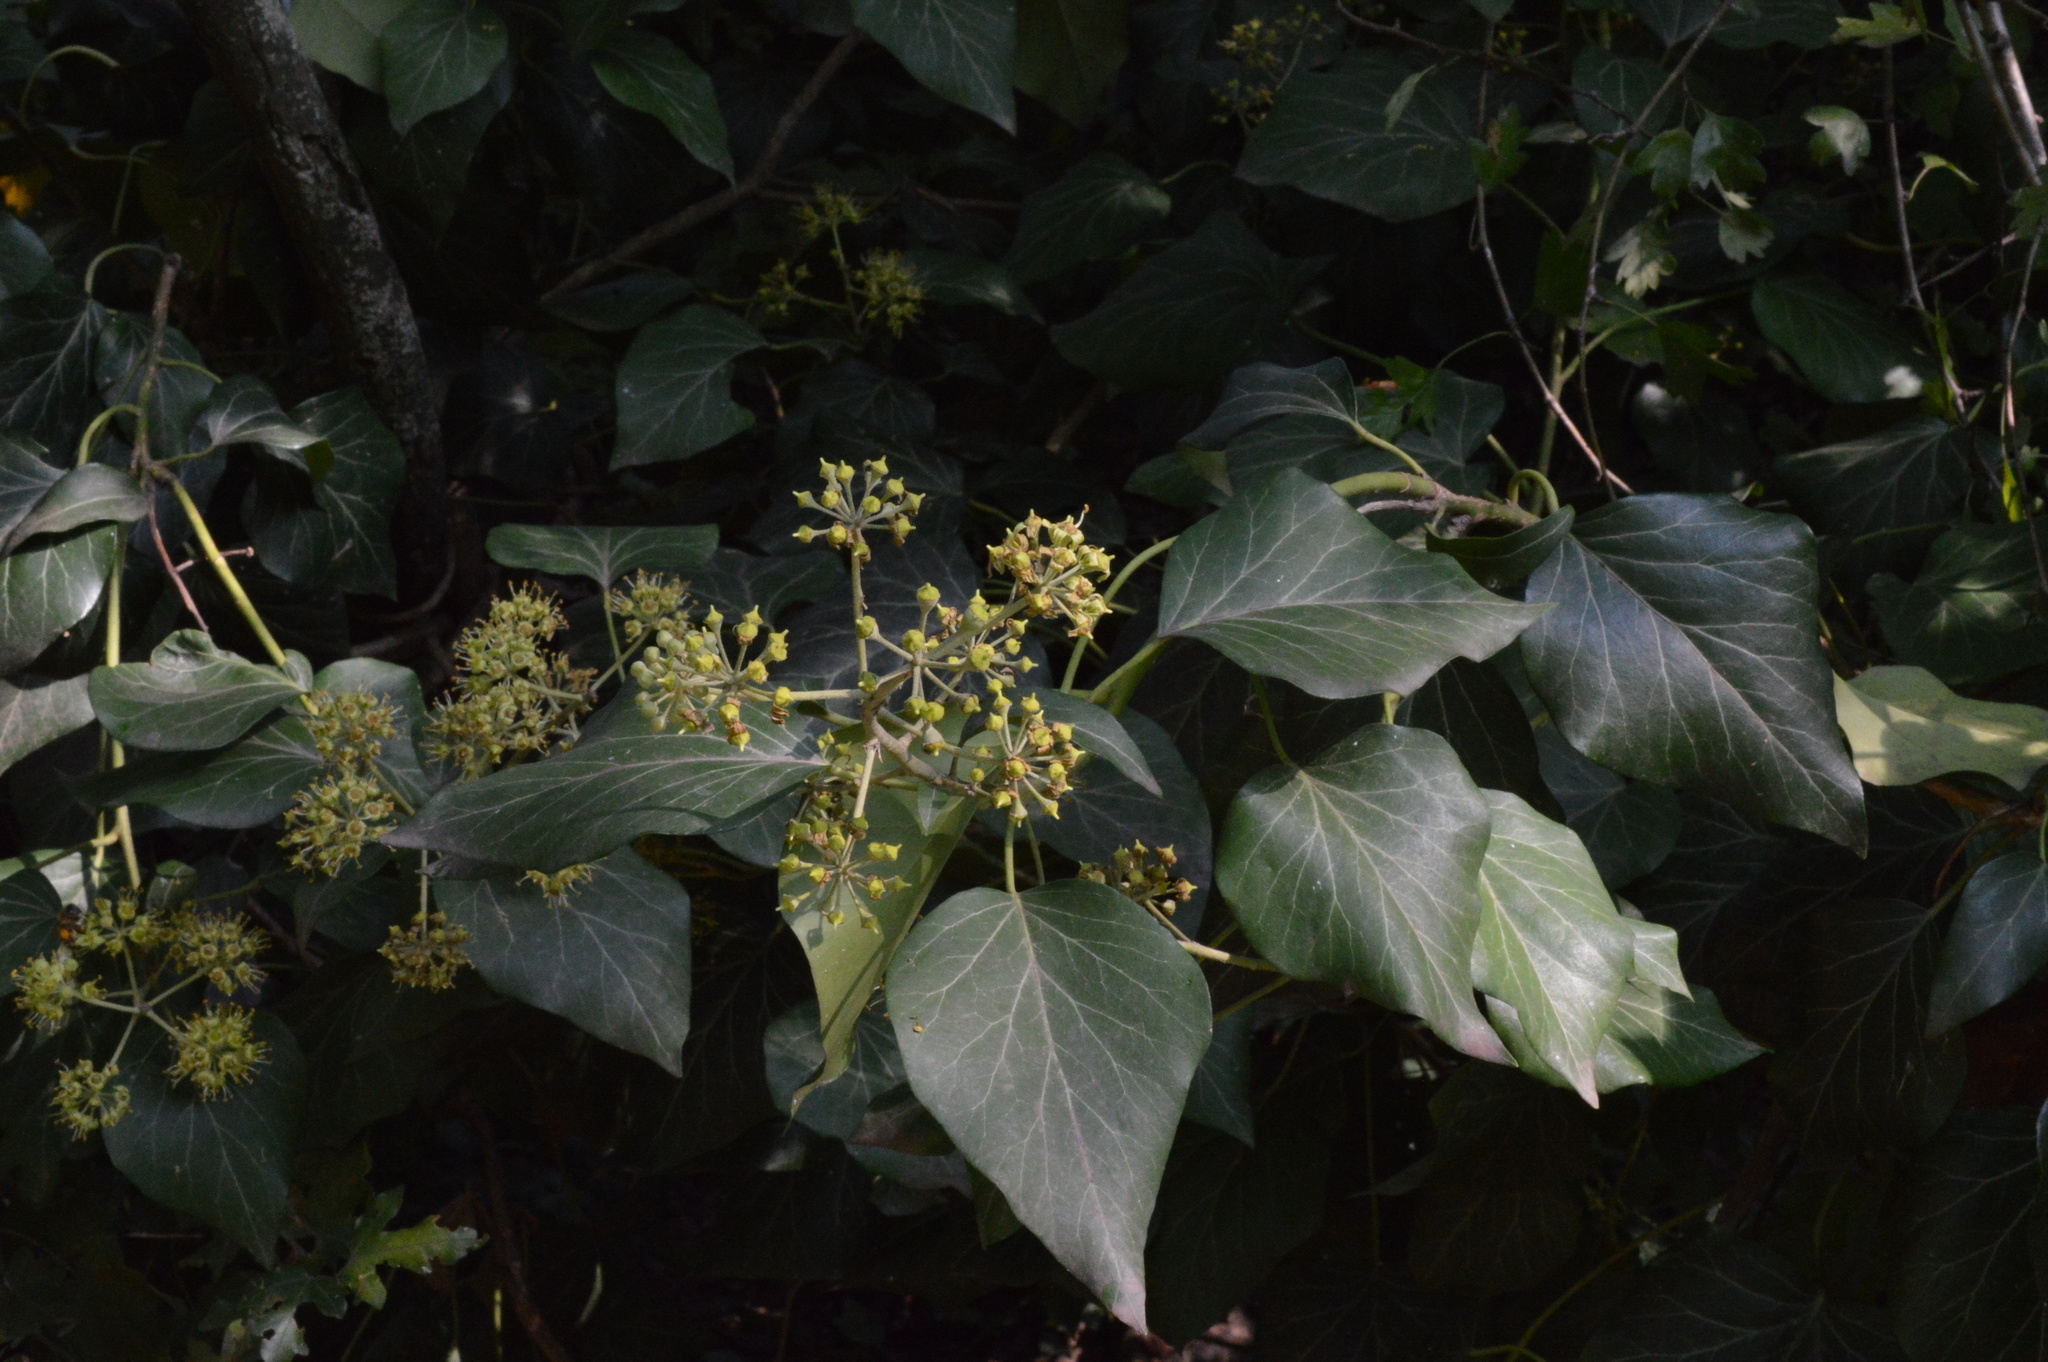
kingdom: Plantae
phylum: Tracheophyta
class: Magnoliopsida
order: Apiales
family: Araliaceae
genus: Hedera
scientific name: Hedera helix
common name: Ivy
